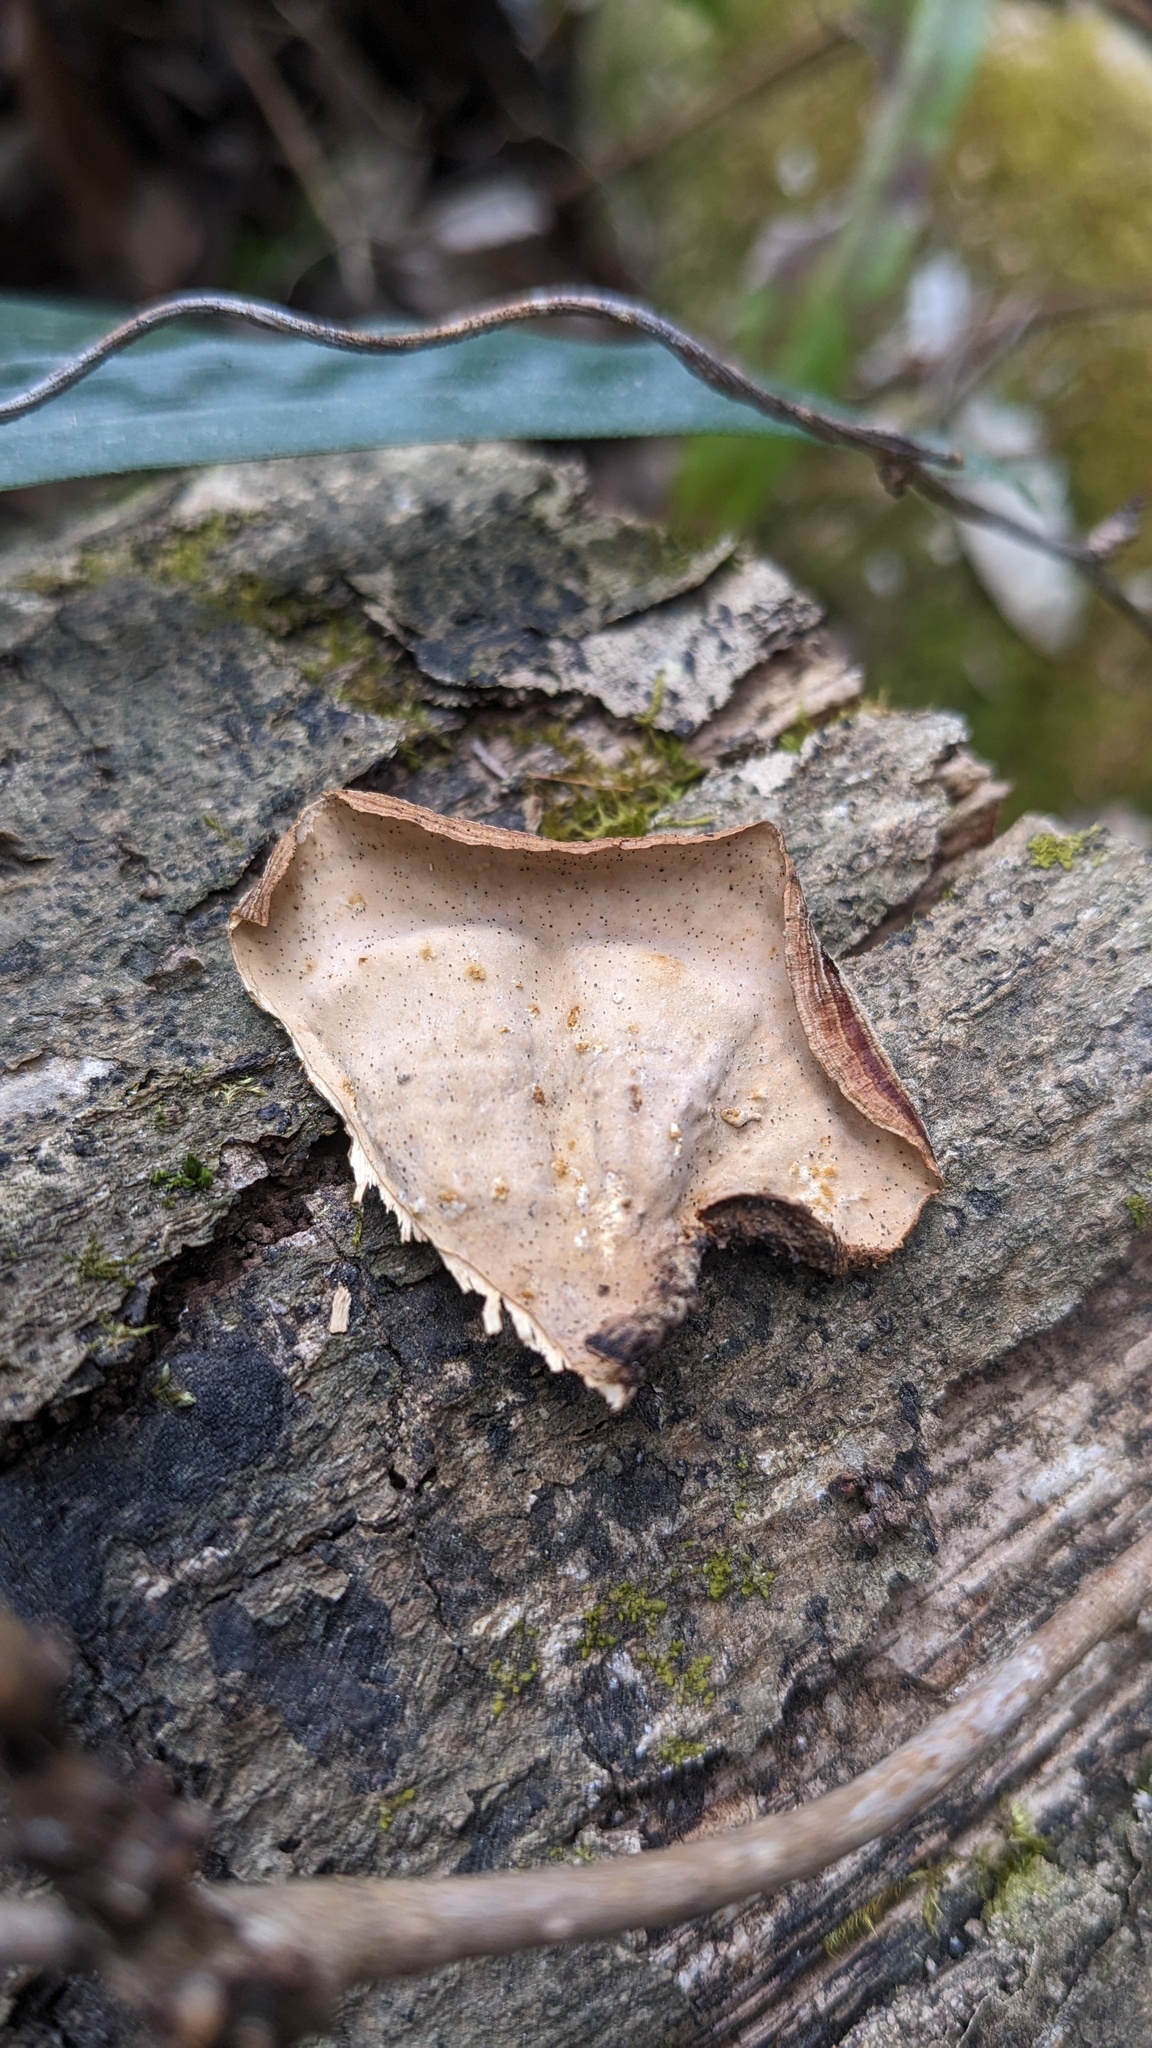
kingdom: Fungi
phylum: Basidiomycota
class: Agaricomycetes
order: Russulales
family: Stereaceae
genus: Stereum
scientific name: Stereum ostrea
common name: False turkeytail
